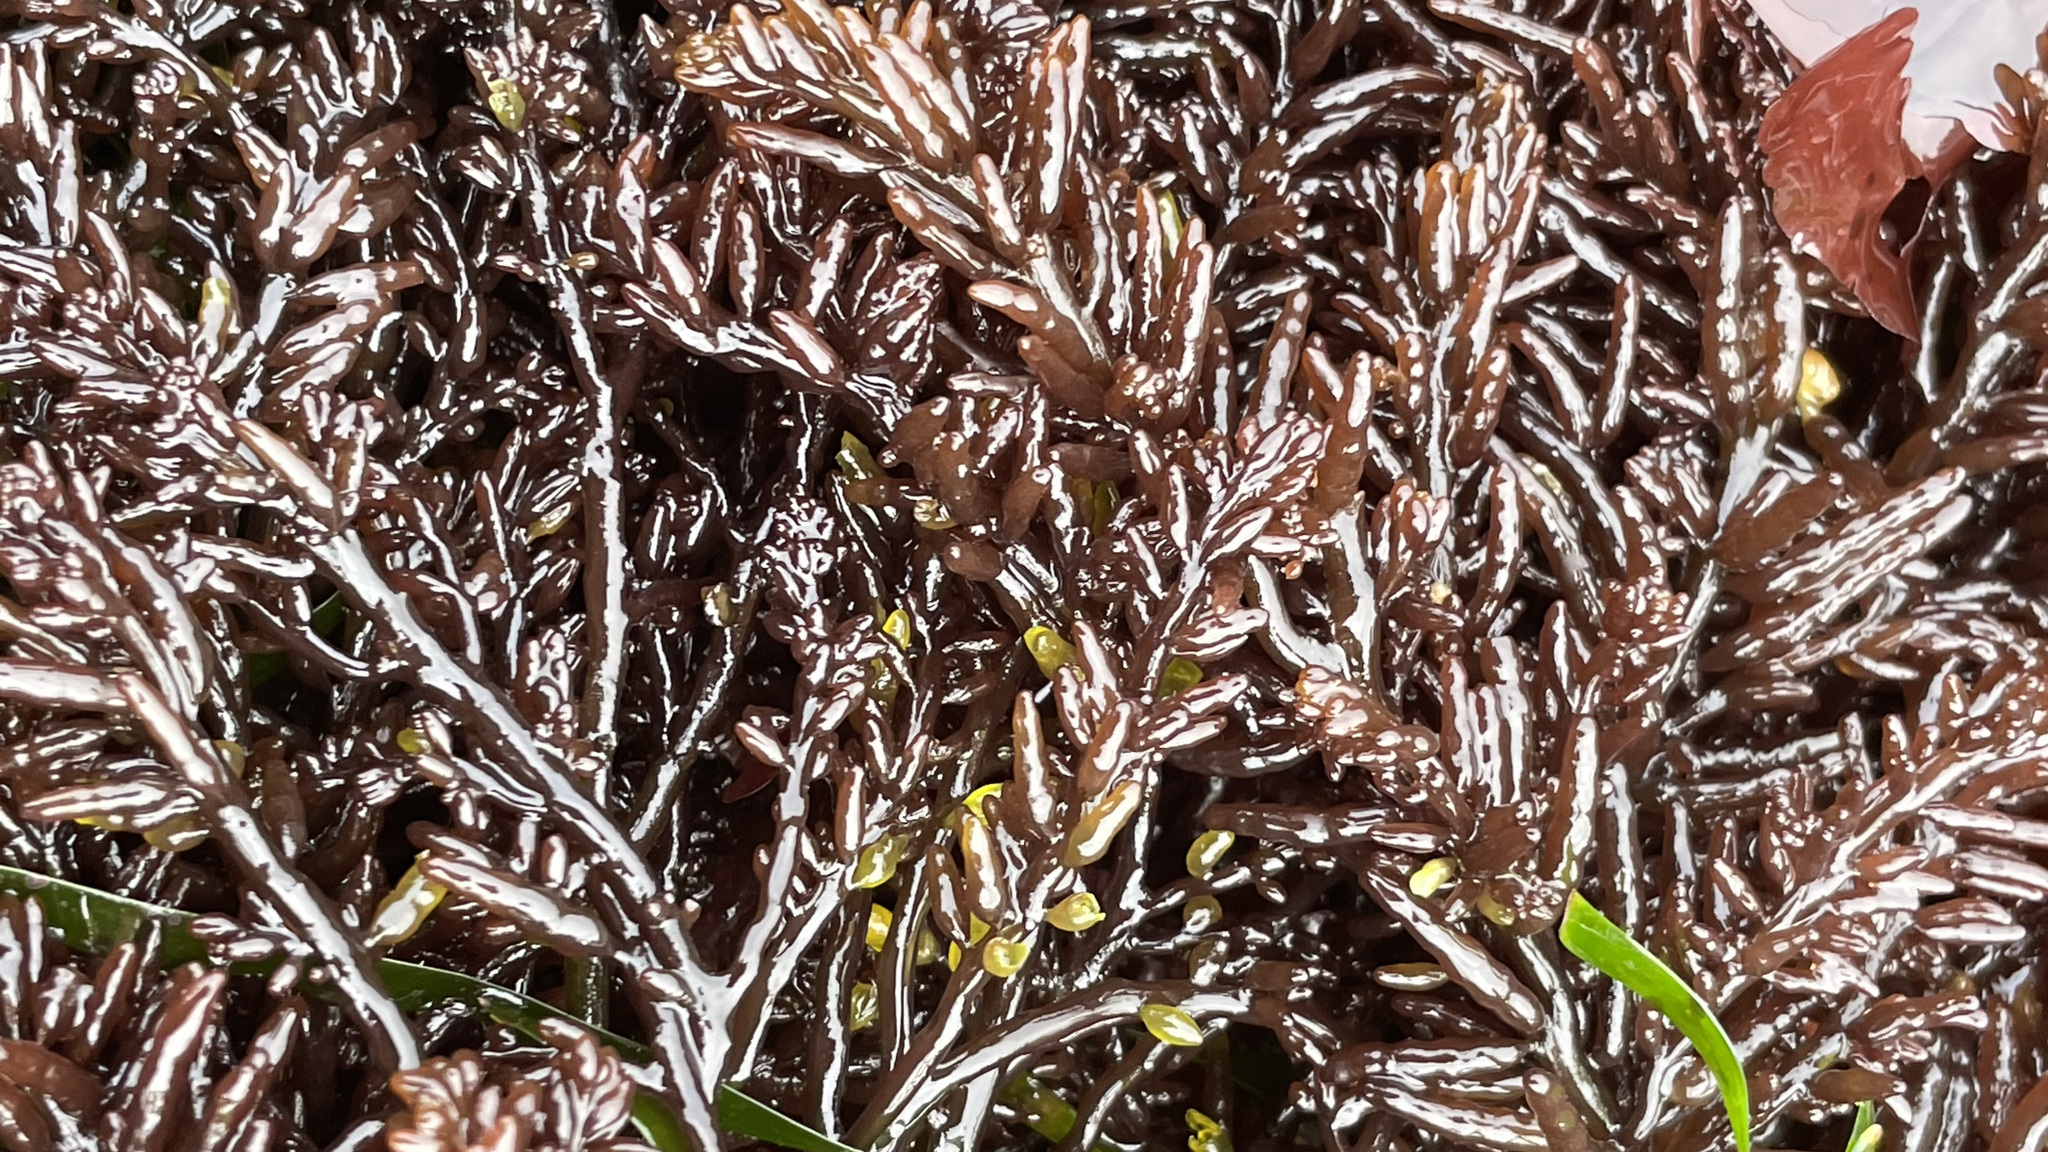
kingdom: Plantae
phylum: Rhodophyta
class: Florideophyceae
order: Rhodymeniales
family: Champiaceae
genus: Neogastroclonium
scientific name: Neogastroclonium subarticulatum
